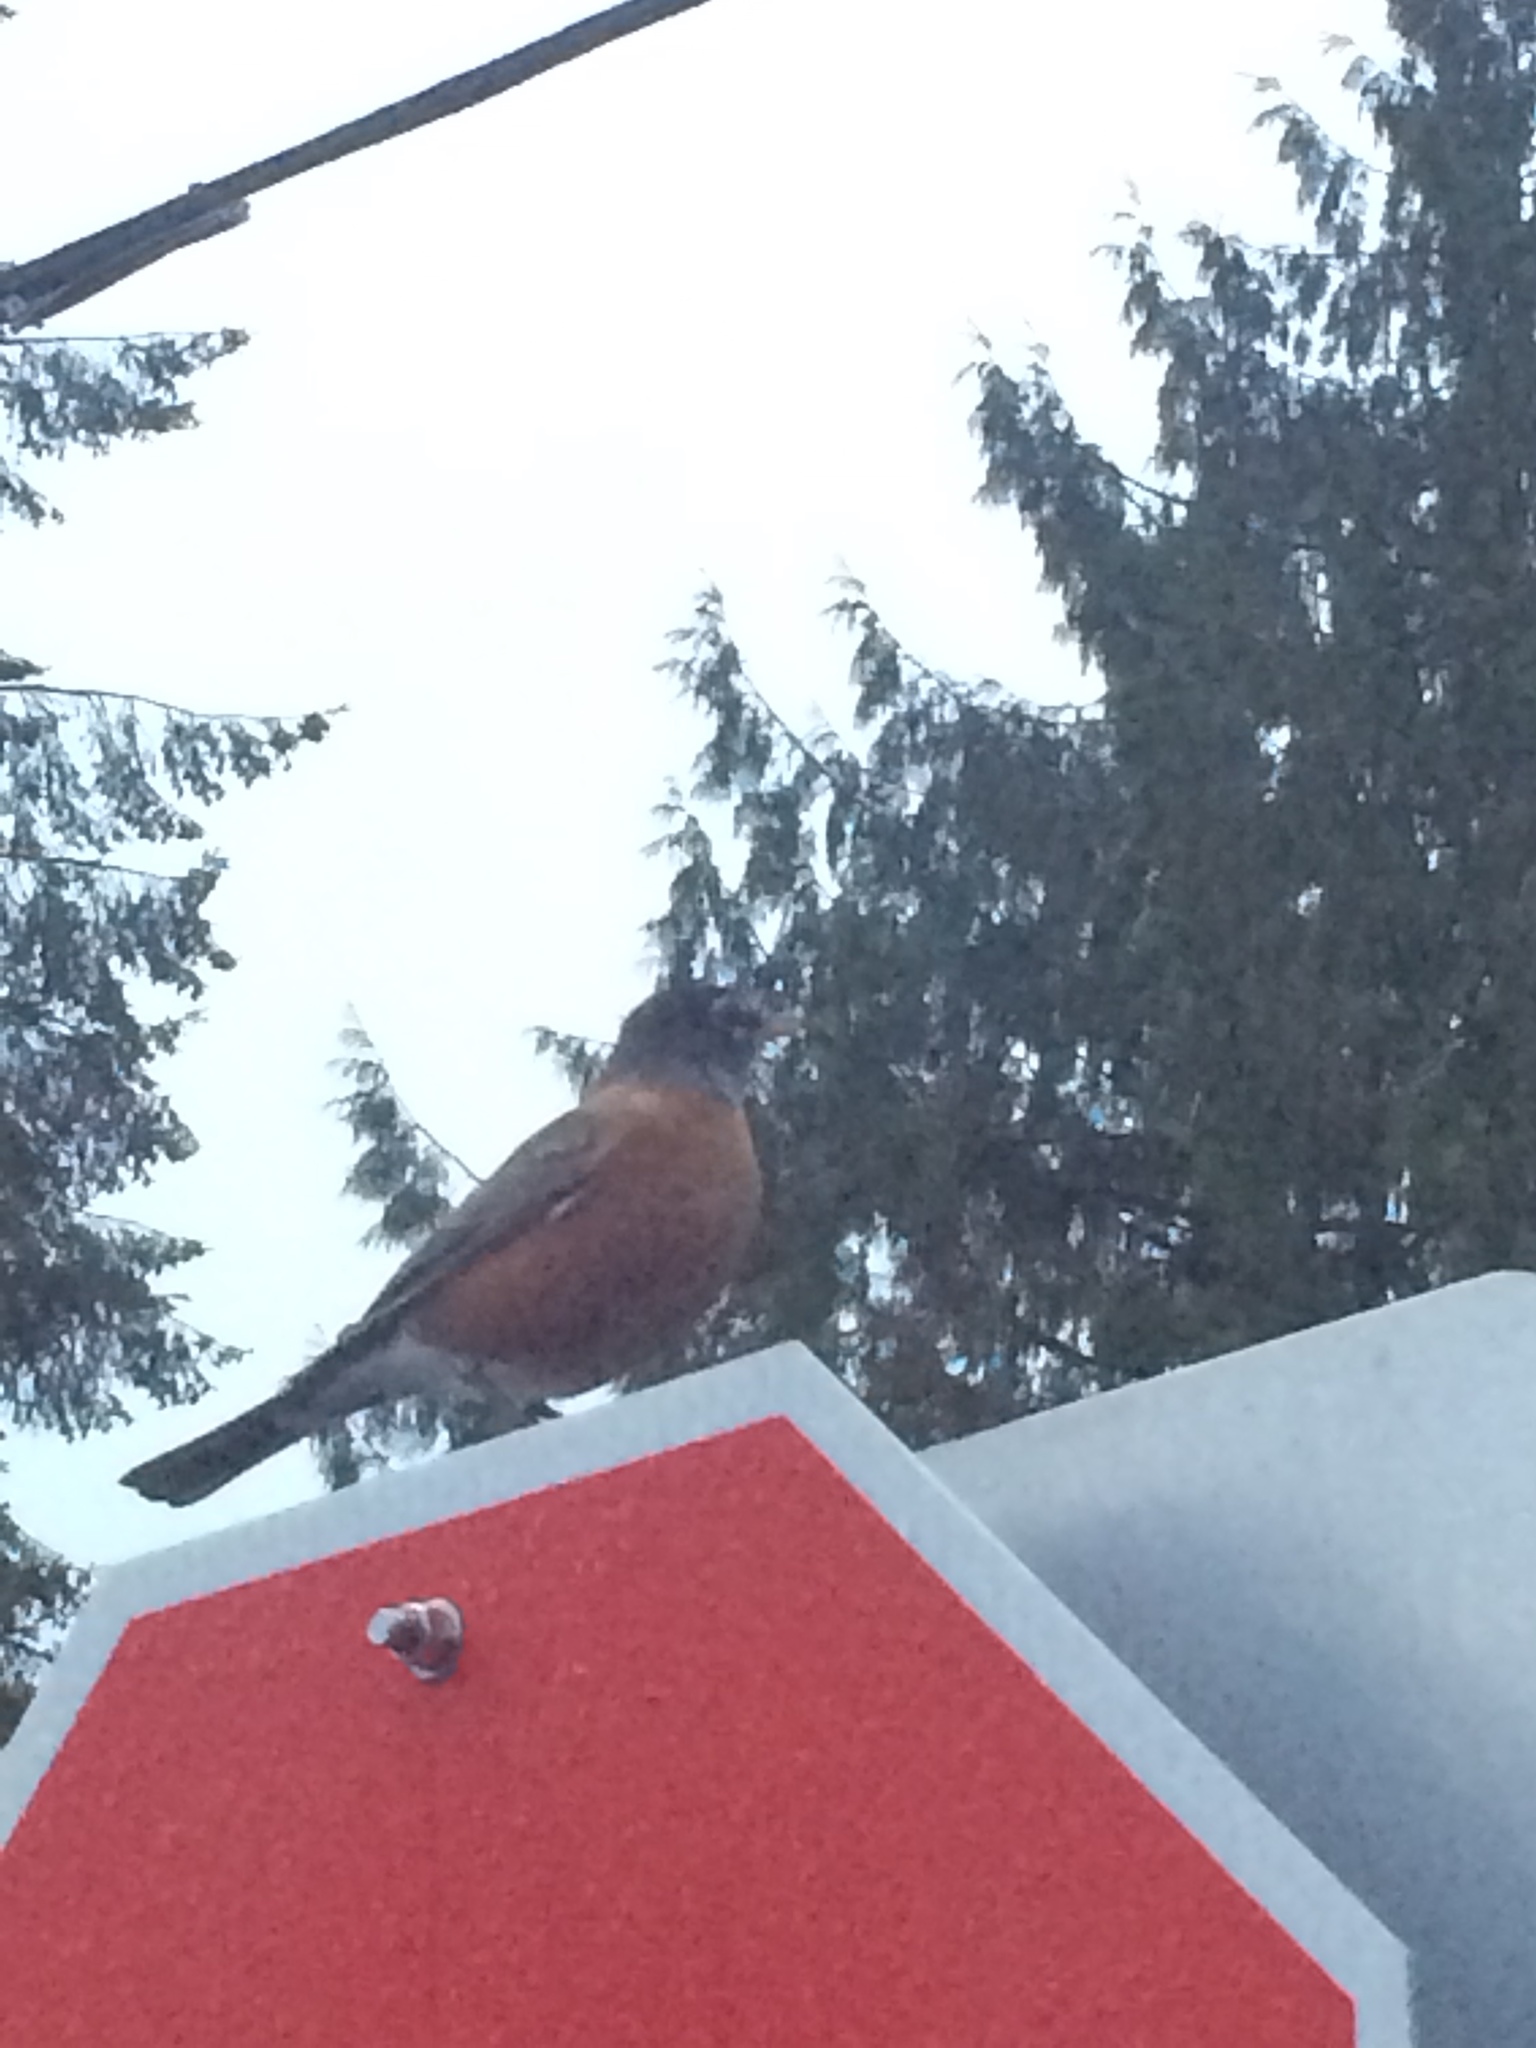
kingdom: Animalia
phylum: Chordata
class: Aves
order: Passeriformes
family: Turdidae
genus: Turdus
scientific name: Turdus migratorius
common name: American robin
